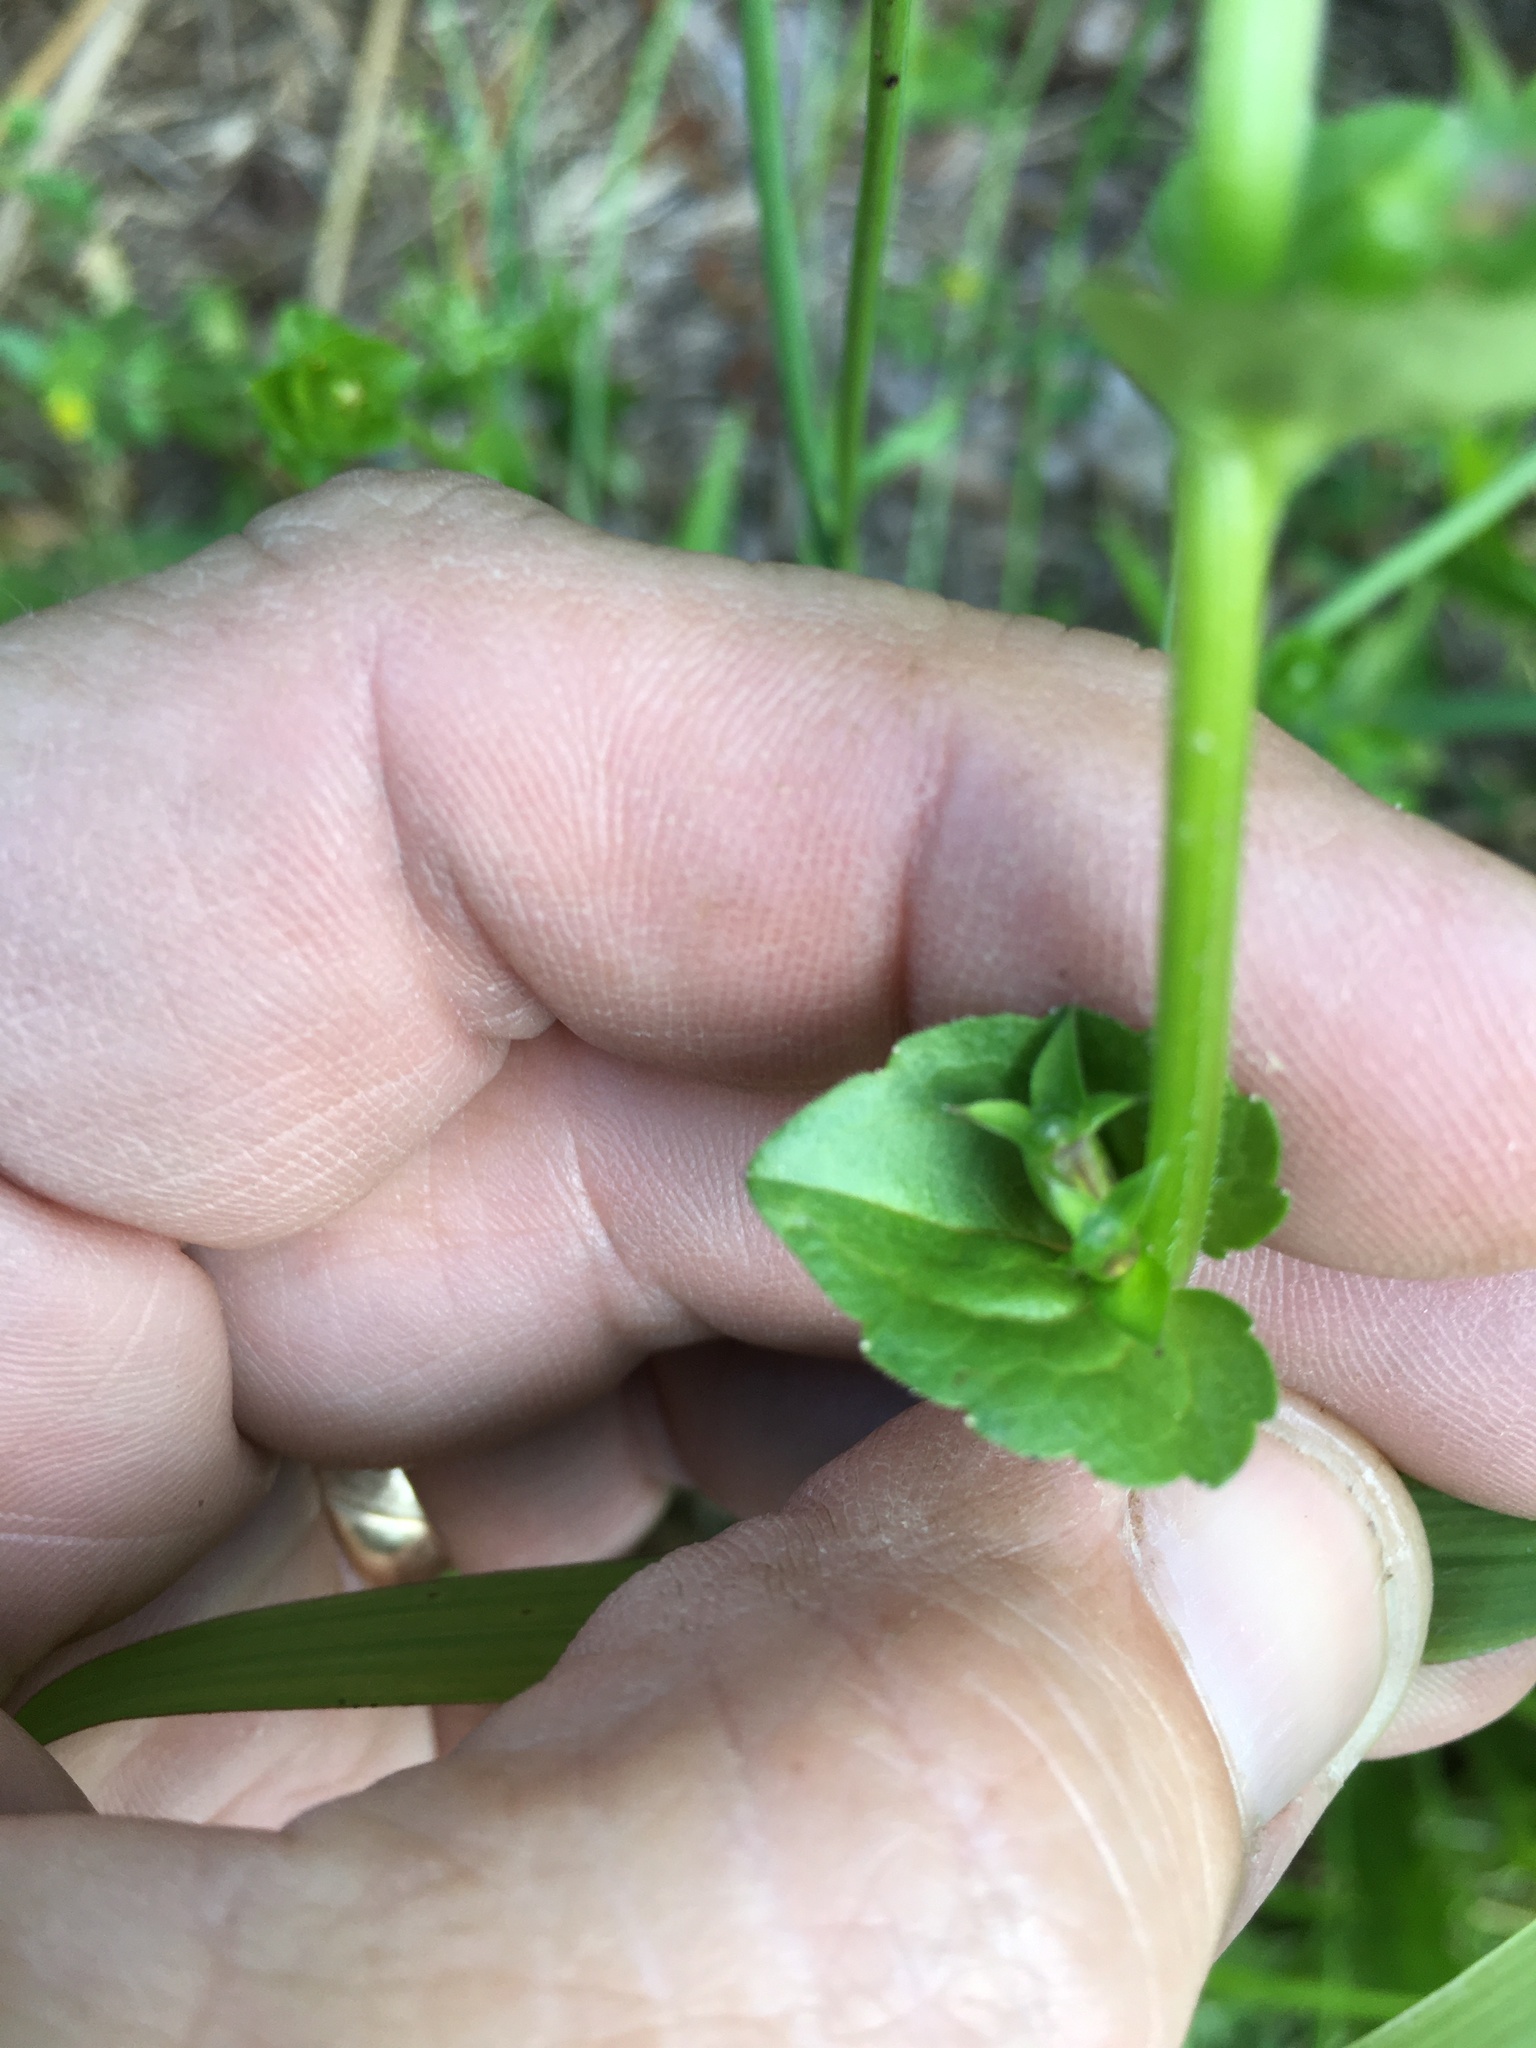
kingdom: Plantae
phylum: Tracheophyta
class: Magnoliopsida
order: Asterales
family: Campanulaceae
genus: Triodanis
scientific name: Triodanis perfoliata
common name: Clasping venus' looking-glass
